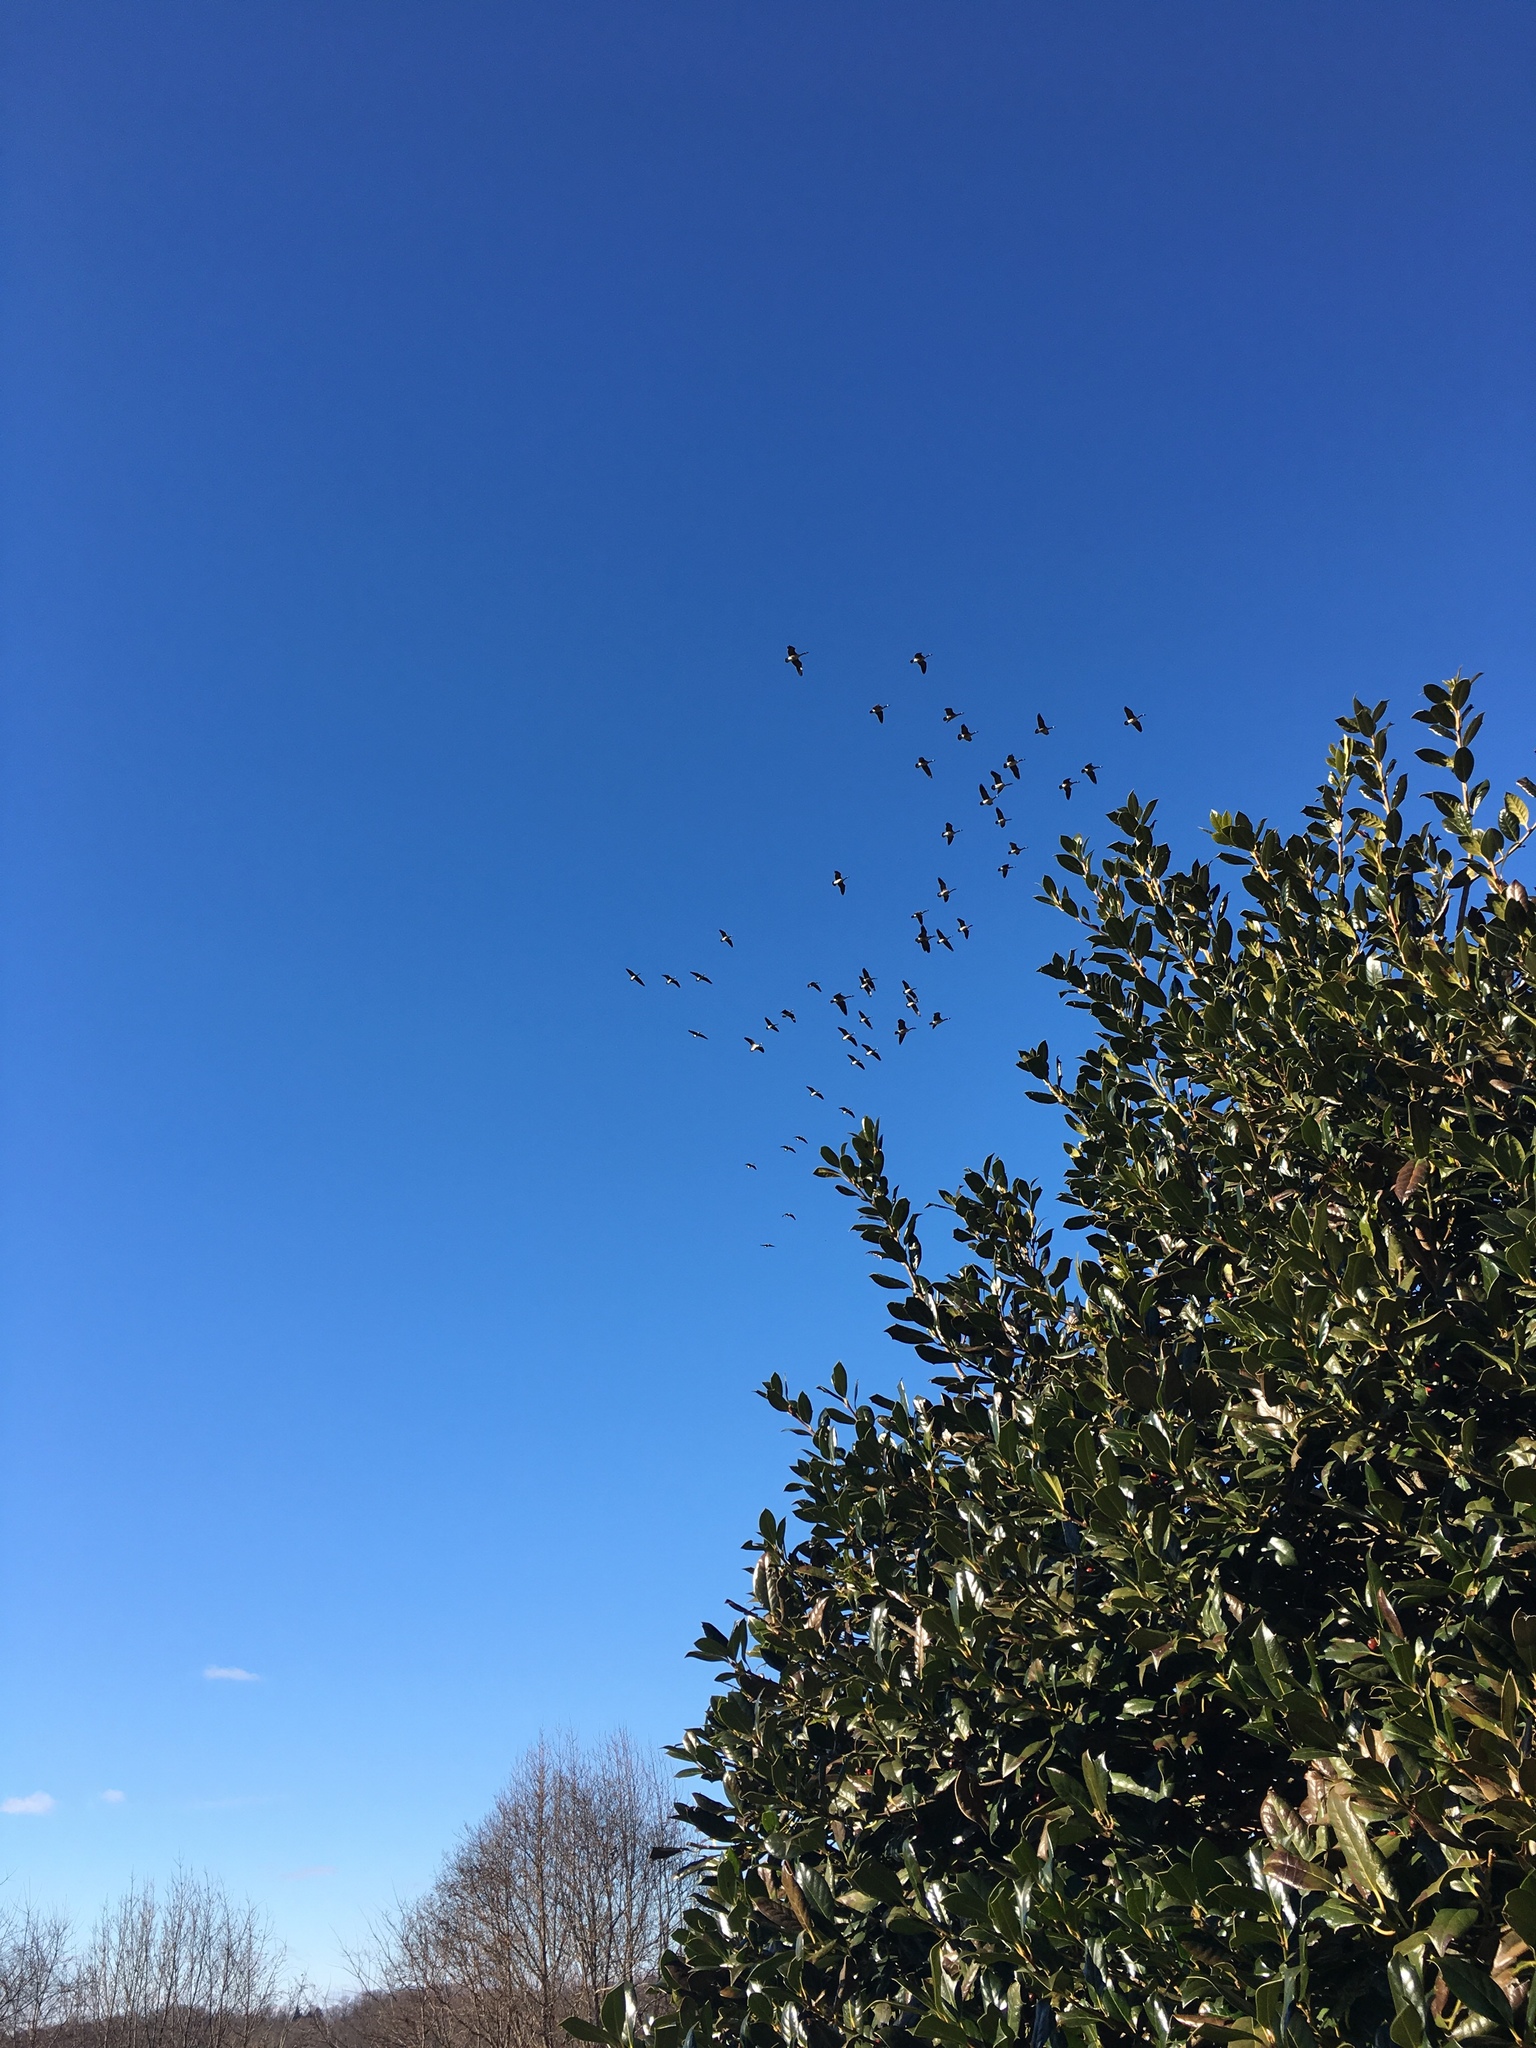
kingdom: Animalia
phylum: Chordata
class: Aves
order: Anseriformes
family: Anatidae
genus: Branta
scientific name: Branta canadensis
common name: Canada goose
